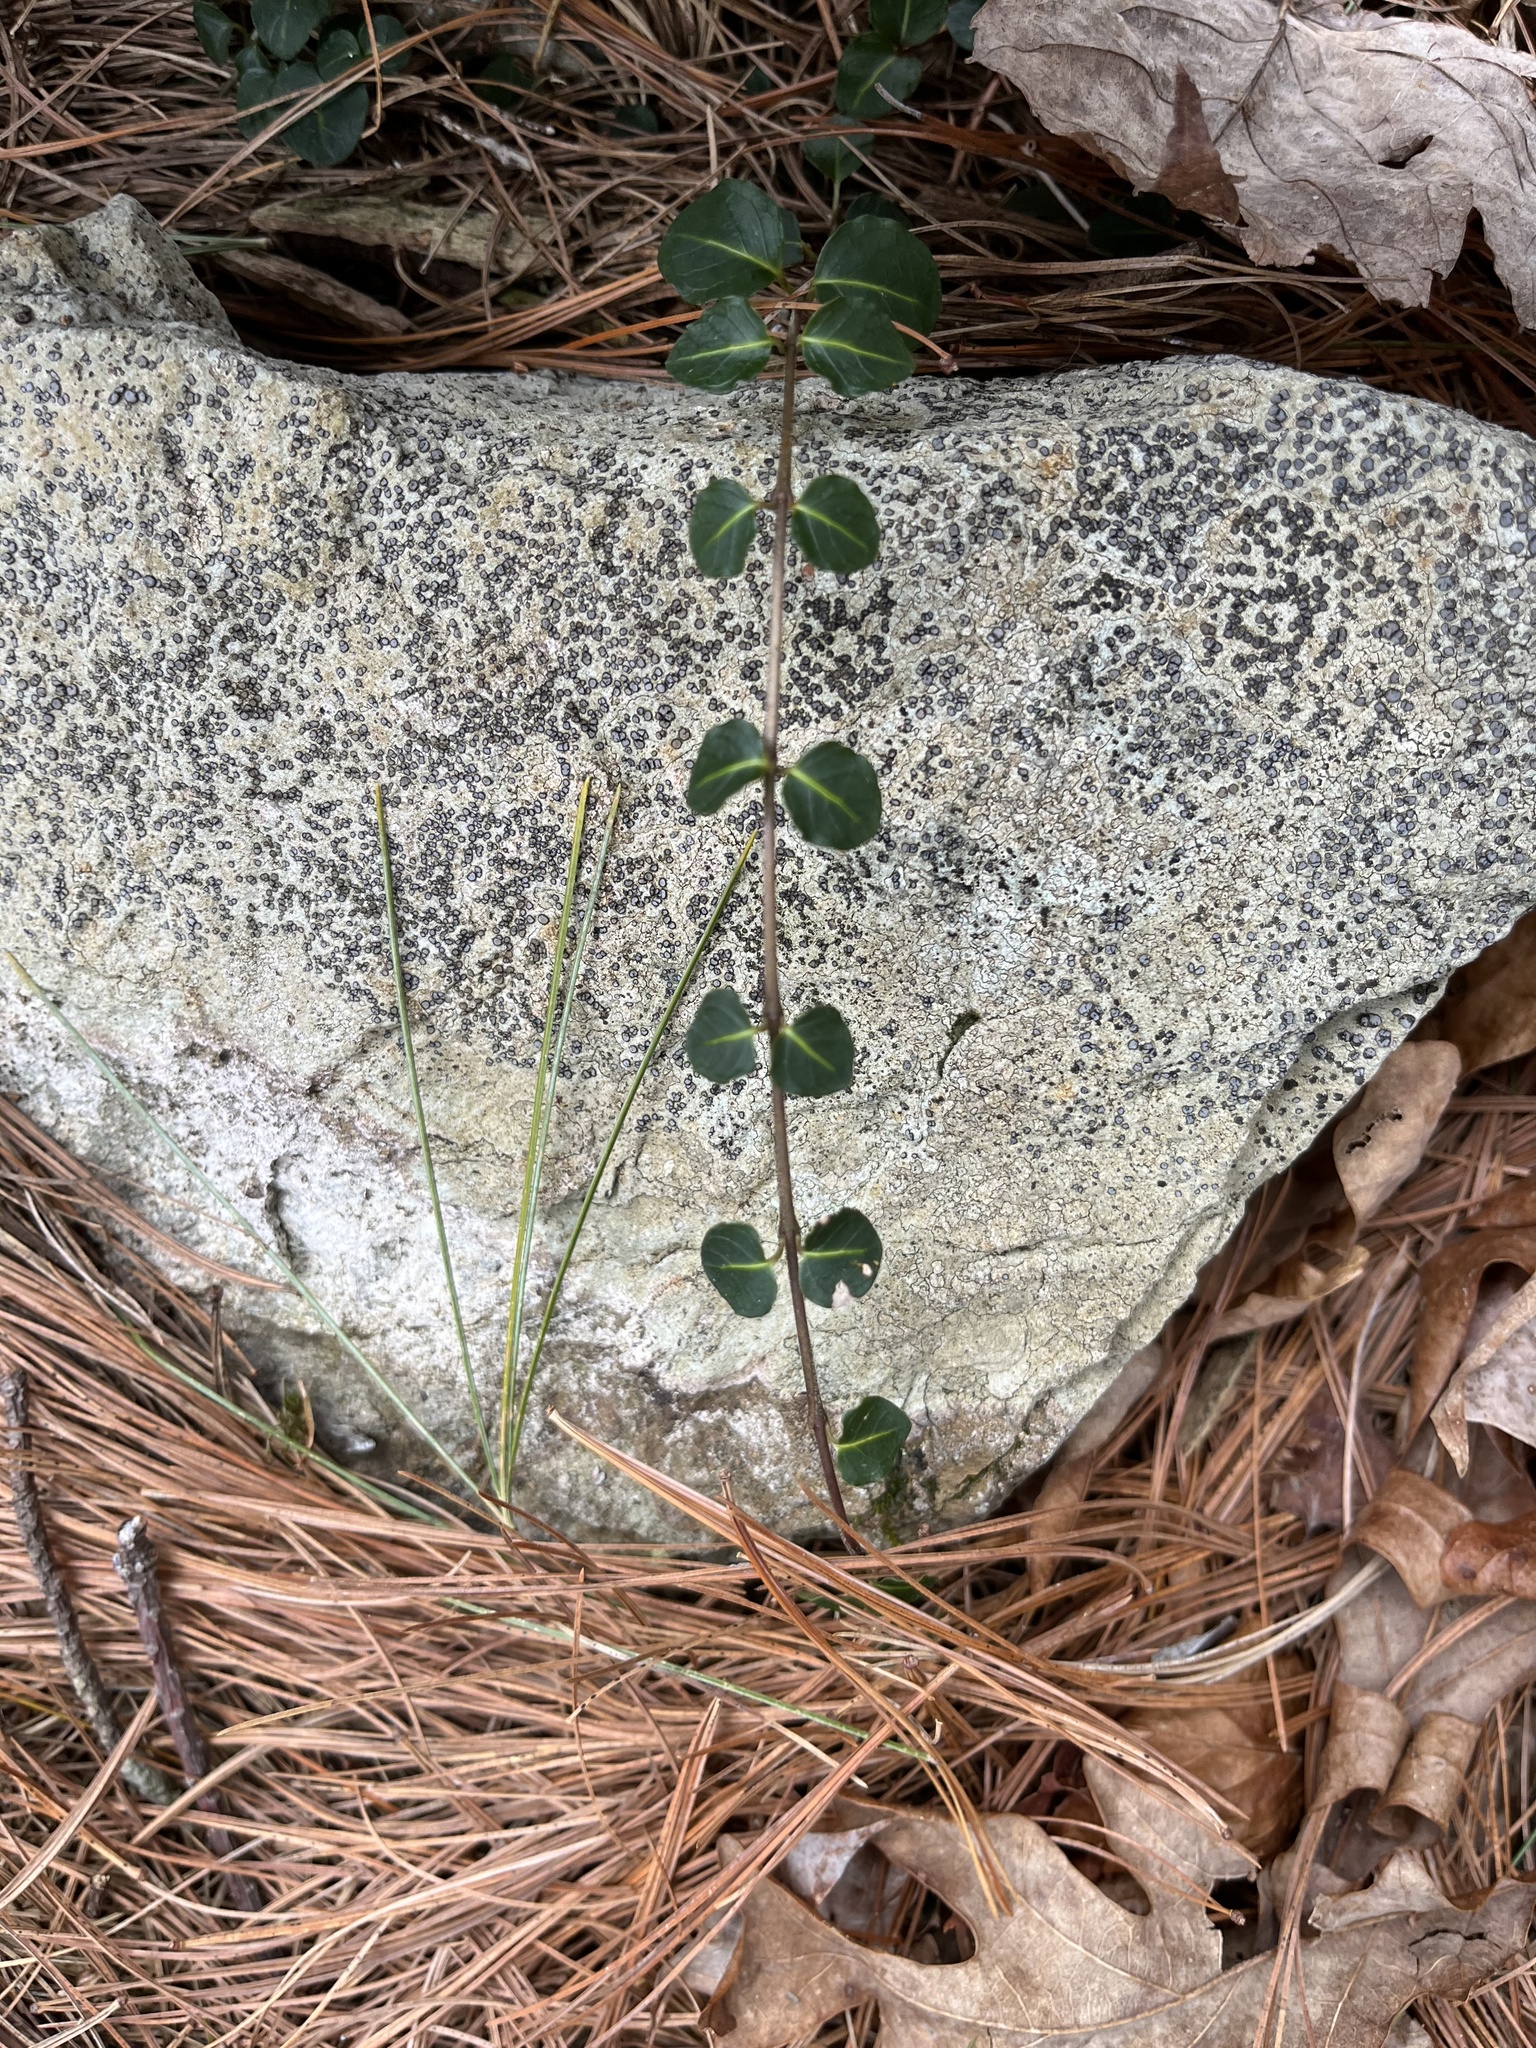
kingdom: Plantae
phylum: Tracheophyta
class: Magnoliopsida
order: Gentianales
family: Rubiaceae
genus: Mitchella
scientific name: Mitchella repens
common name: Partridge-berry
